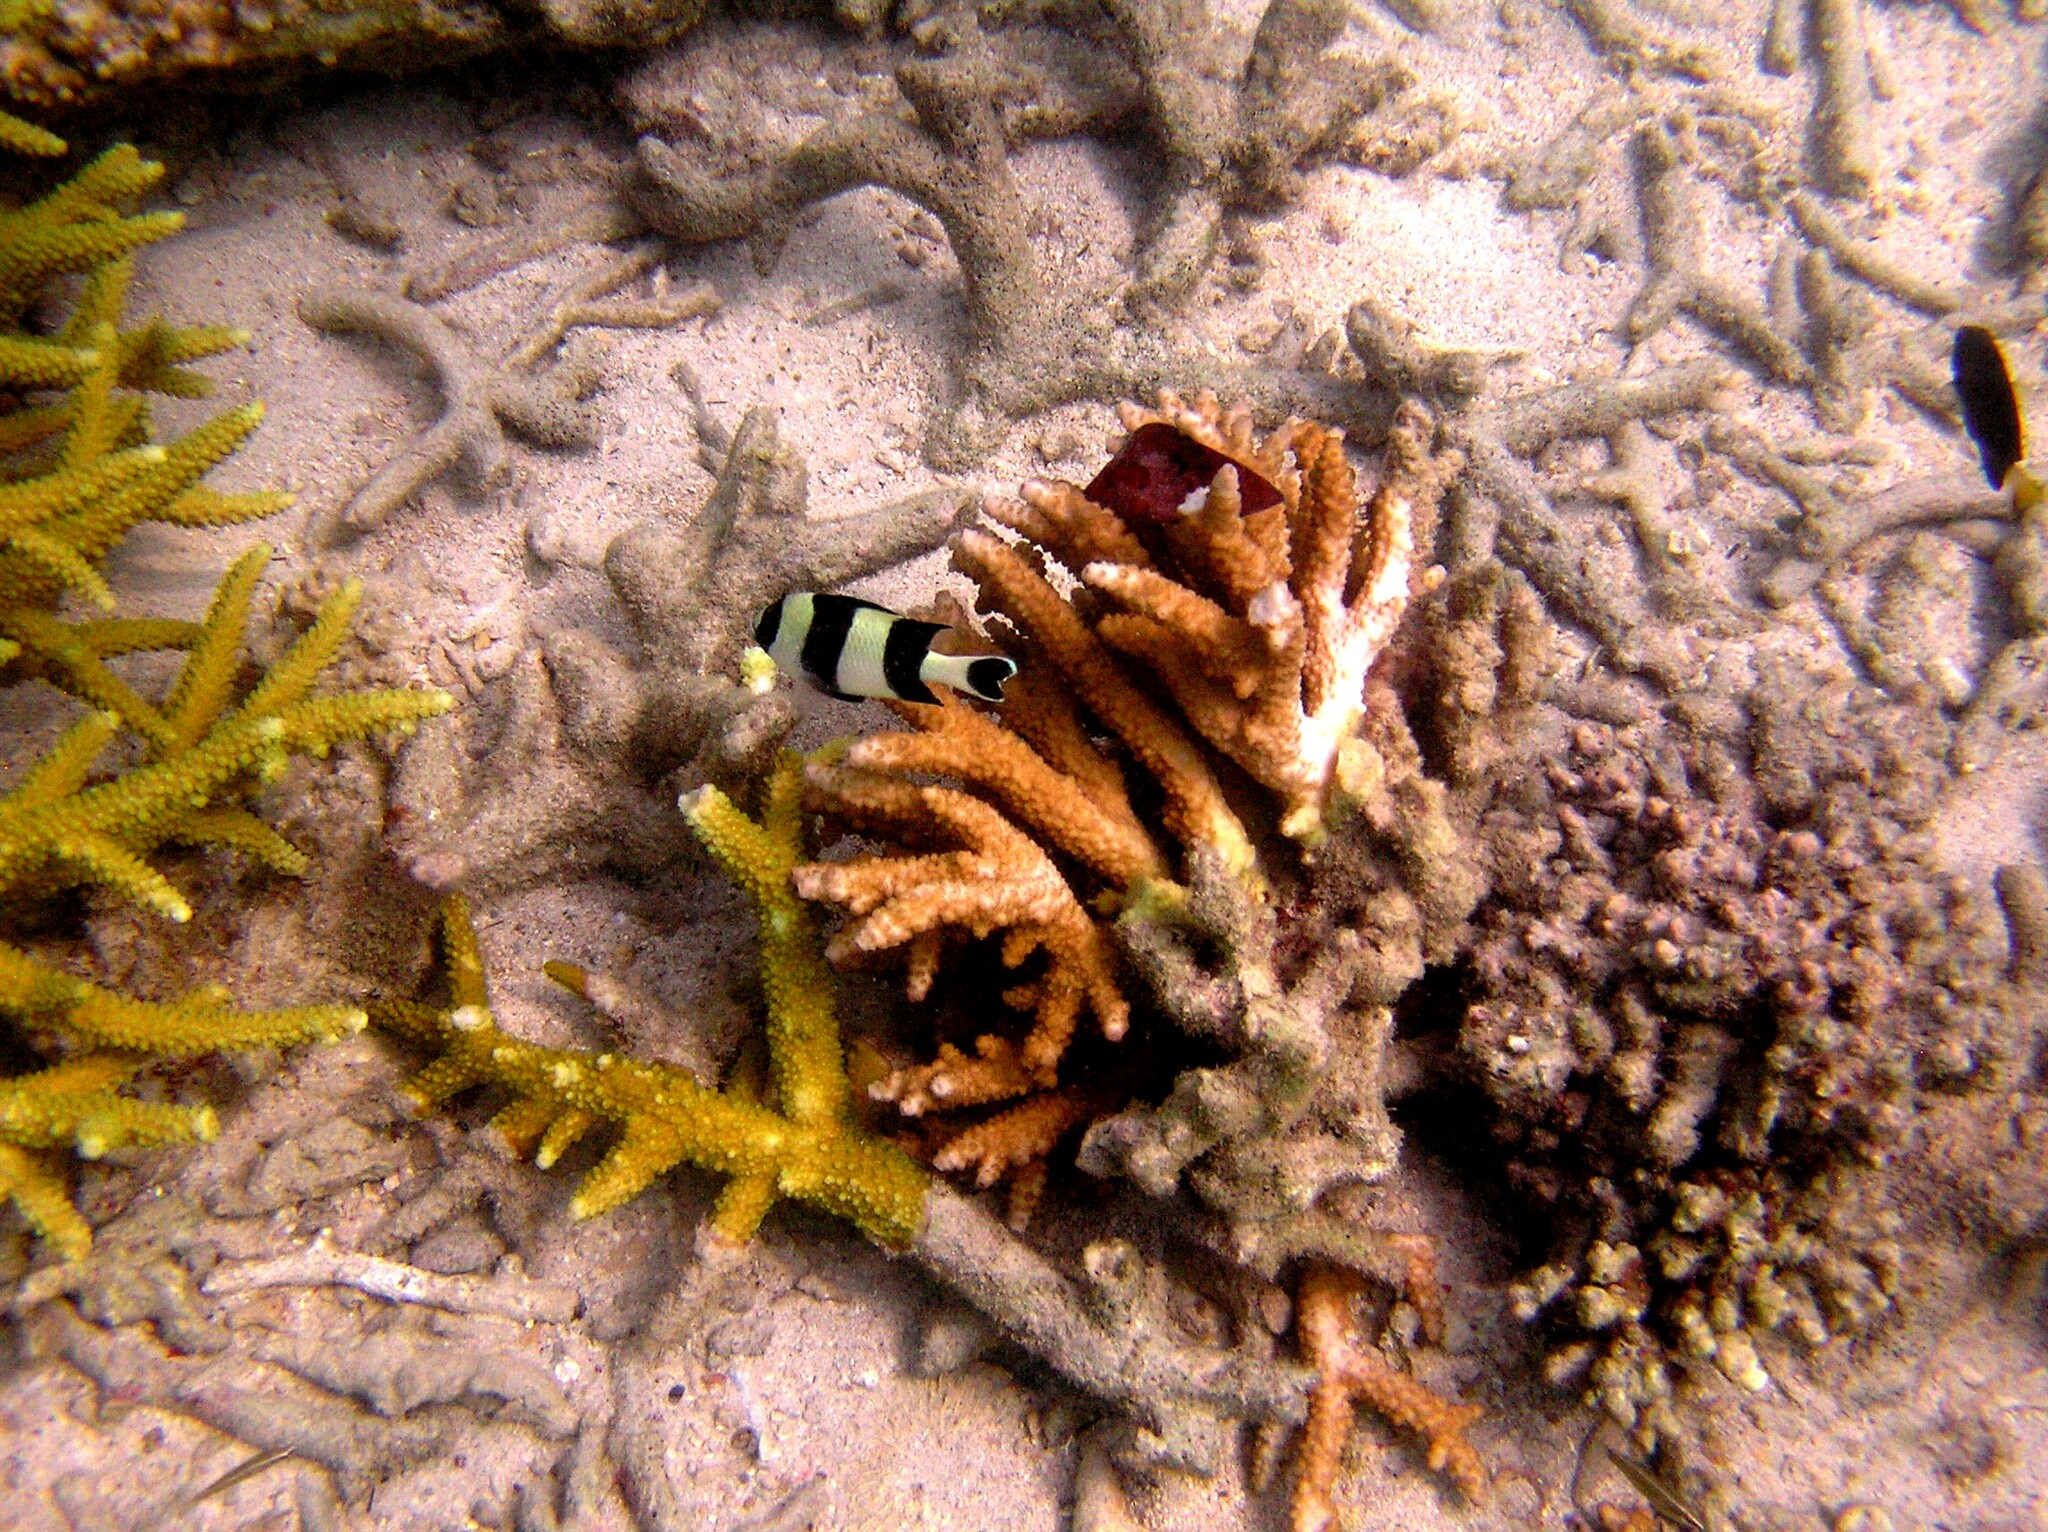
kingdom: Animalia
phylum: Chordata
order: Perciformes
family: Pomacentridae
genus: Dascyllus
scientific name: Dascyllus melanurus
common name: Black-tail dascyllus
